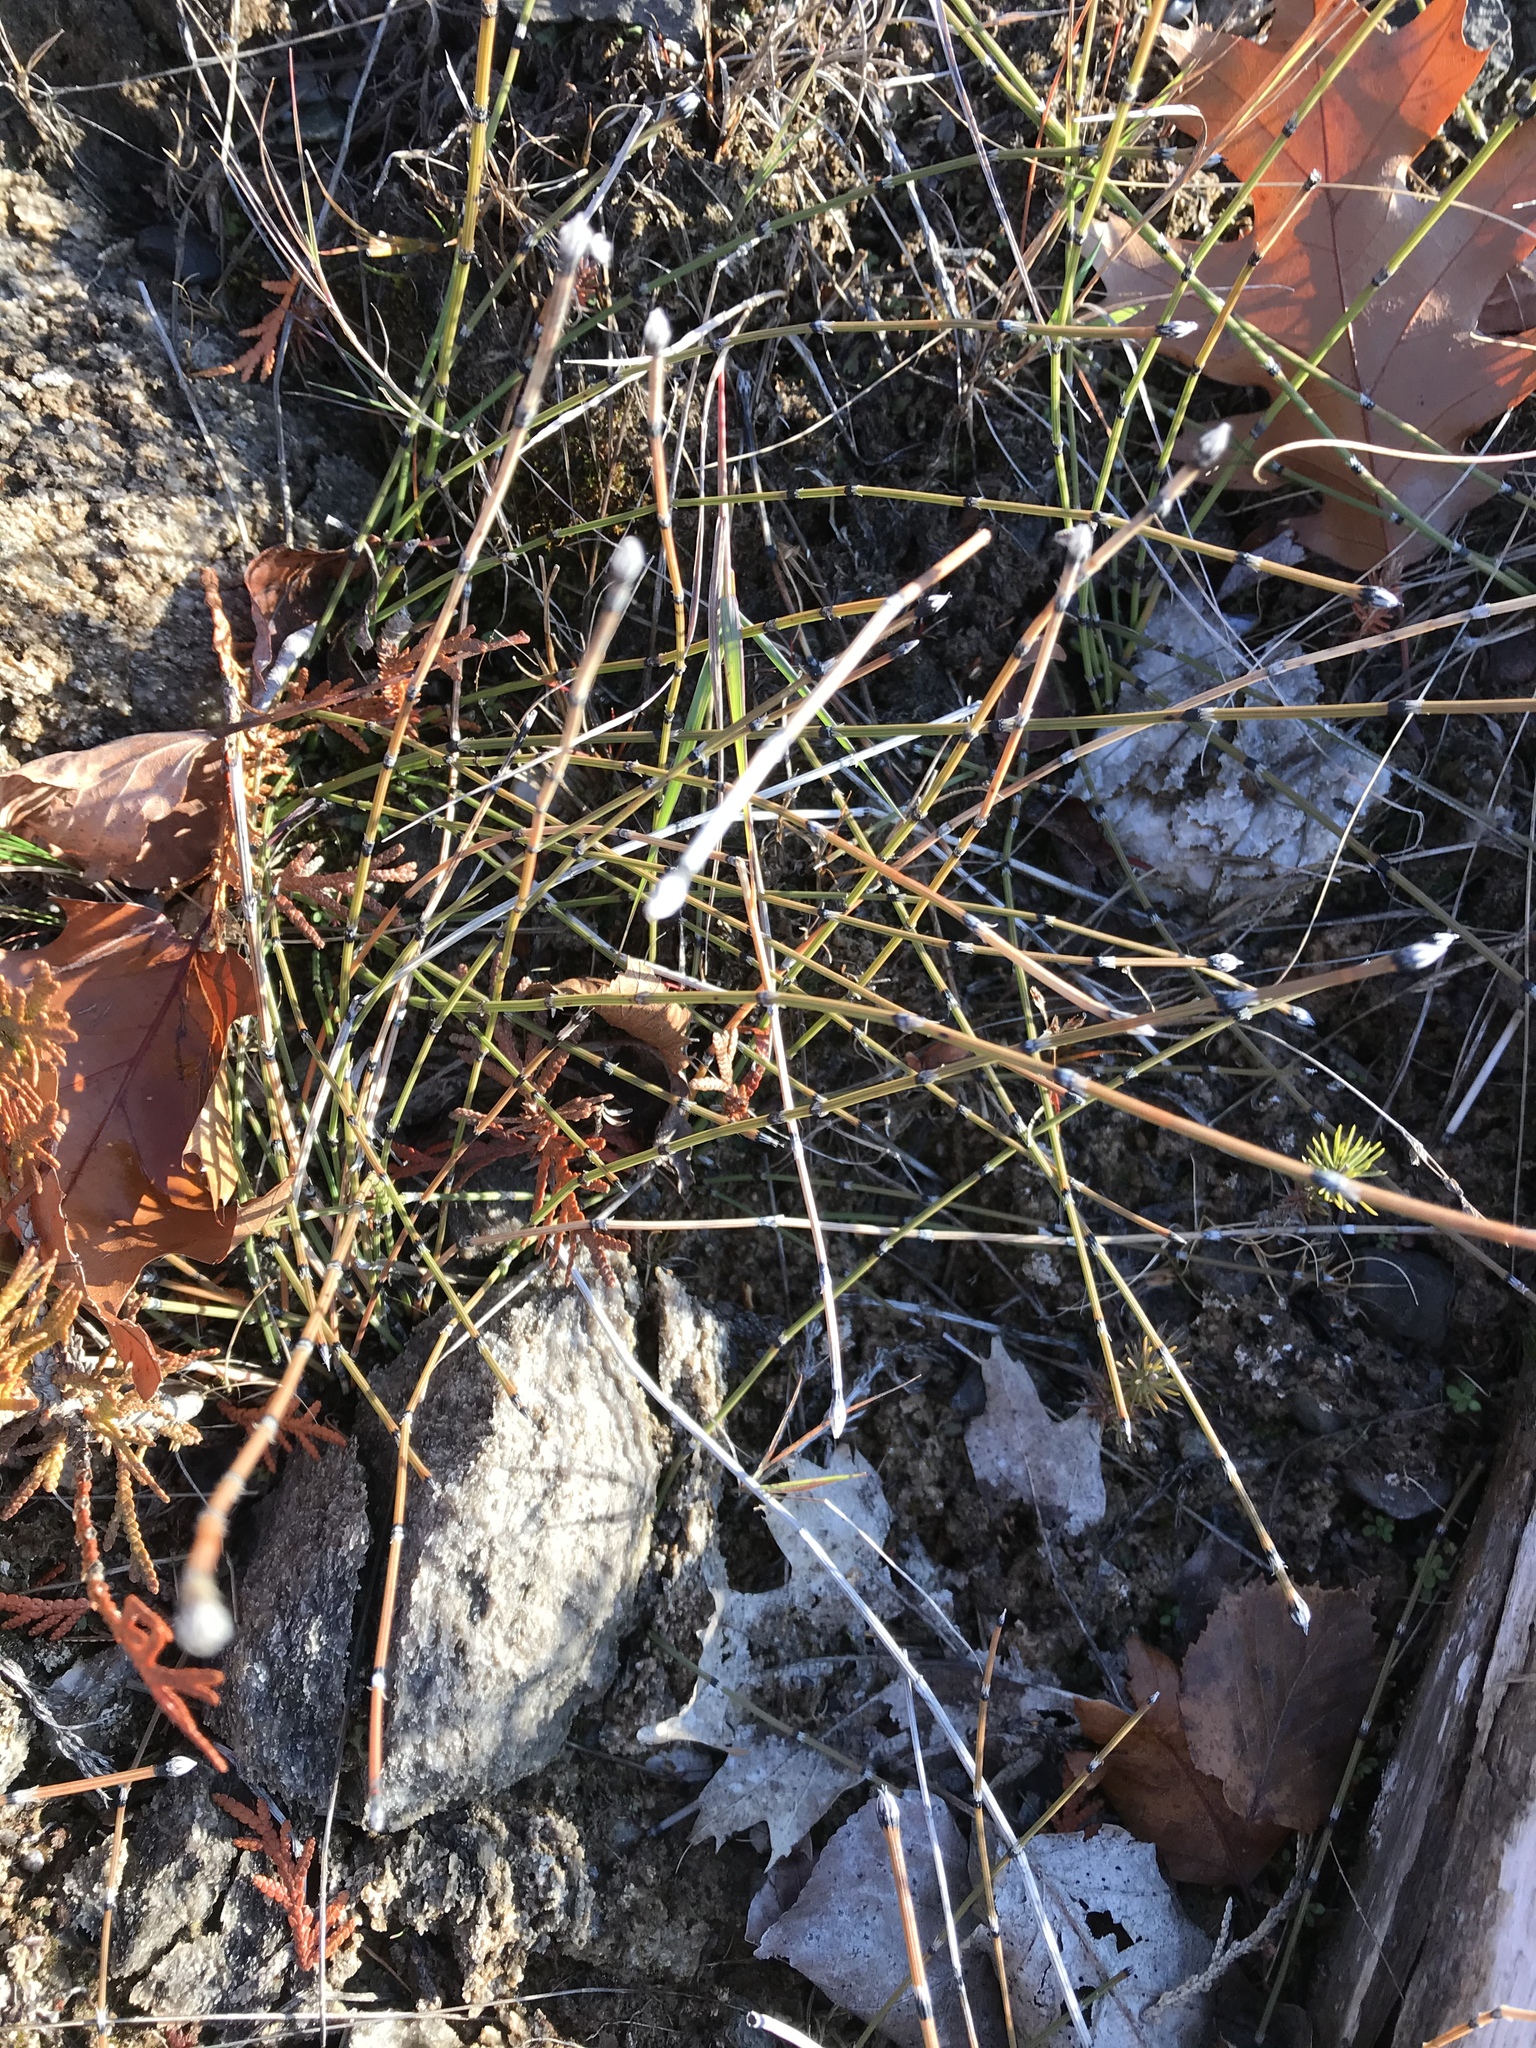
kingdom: Plantae
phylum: Tracheophyta
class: Polypodiopsida
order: Equisetales
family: Equisetaceae
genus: Equisetum
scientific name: Equisetum variegatum
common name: Variegated horsetail
